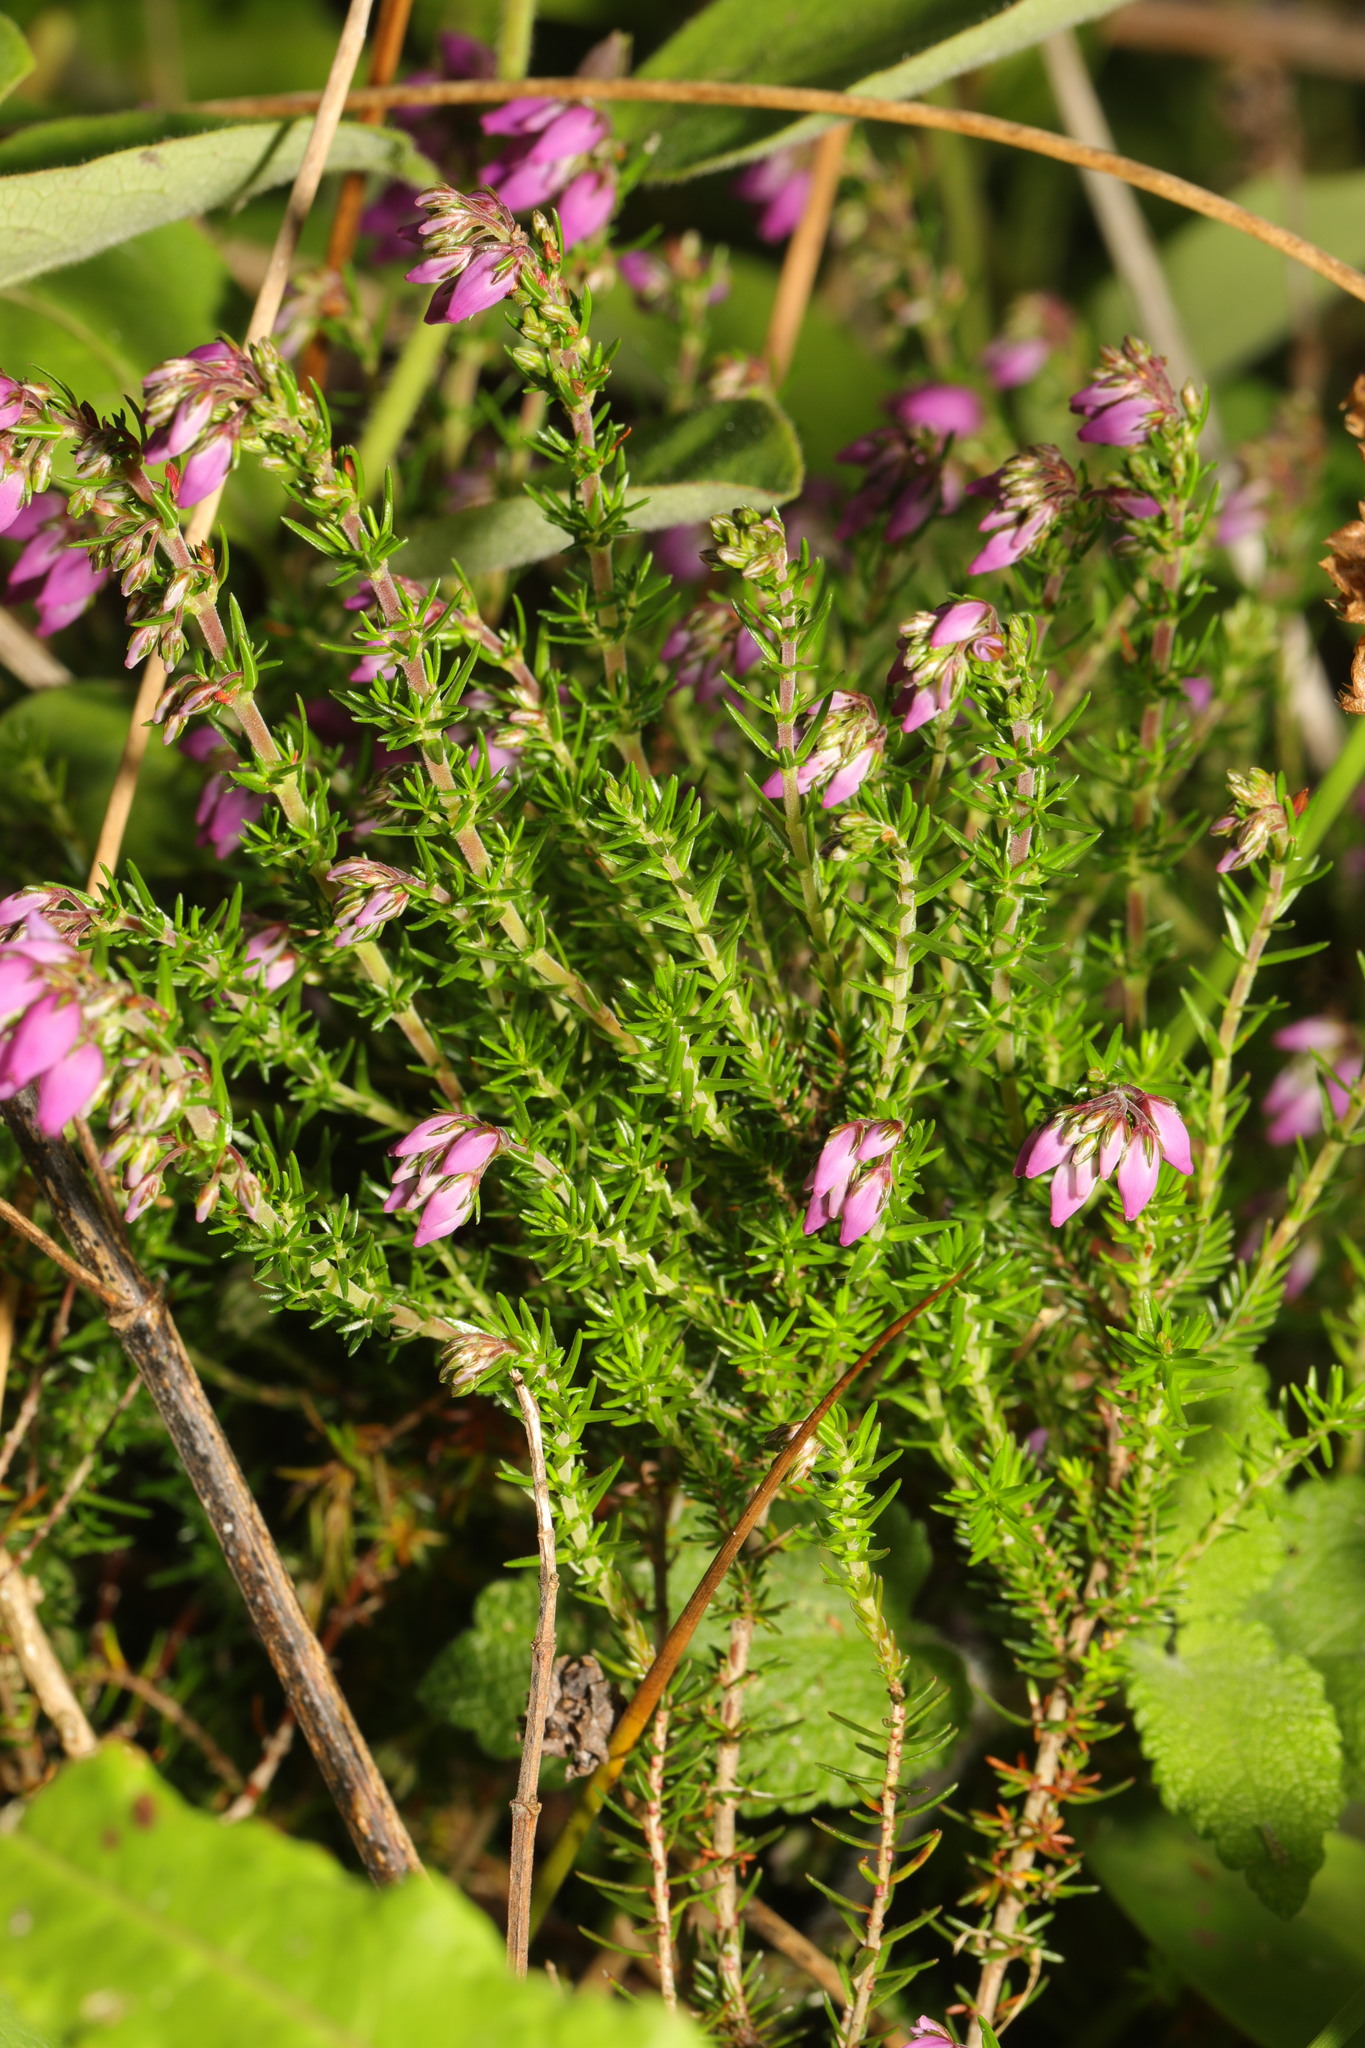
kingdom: Plantae
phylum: Tracheophyta
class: Magnoliopsida
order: Ericales
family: Ericaceae
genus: Erica
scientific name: Erica cinerea
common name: Bell heather
